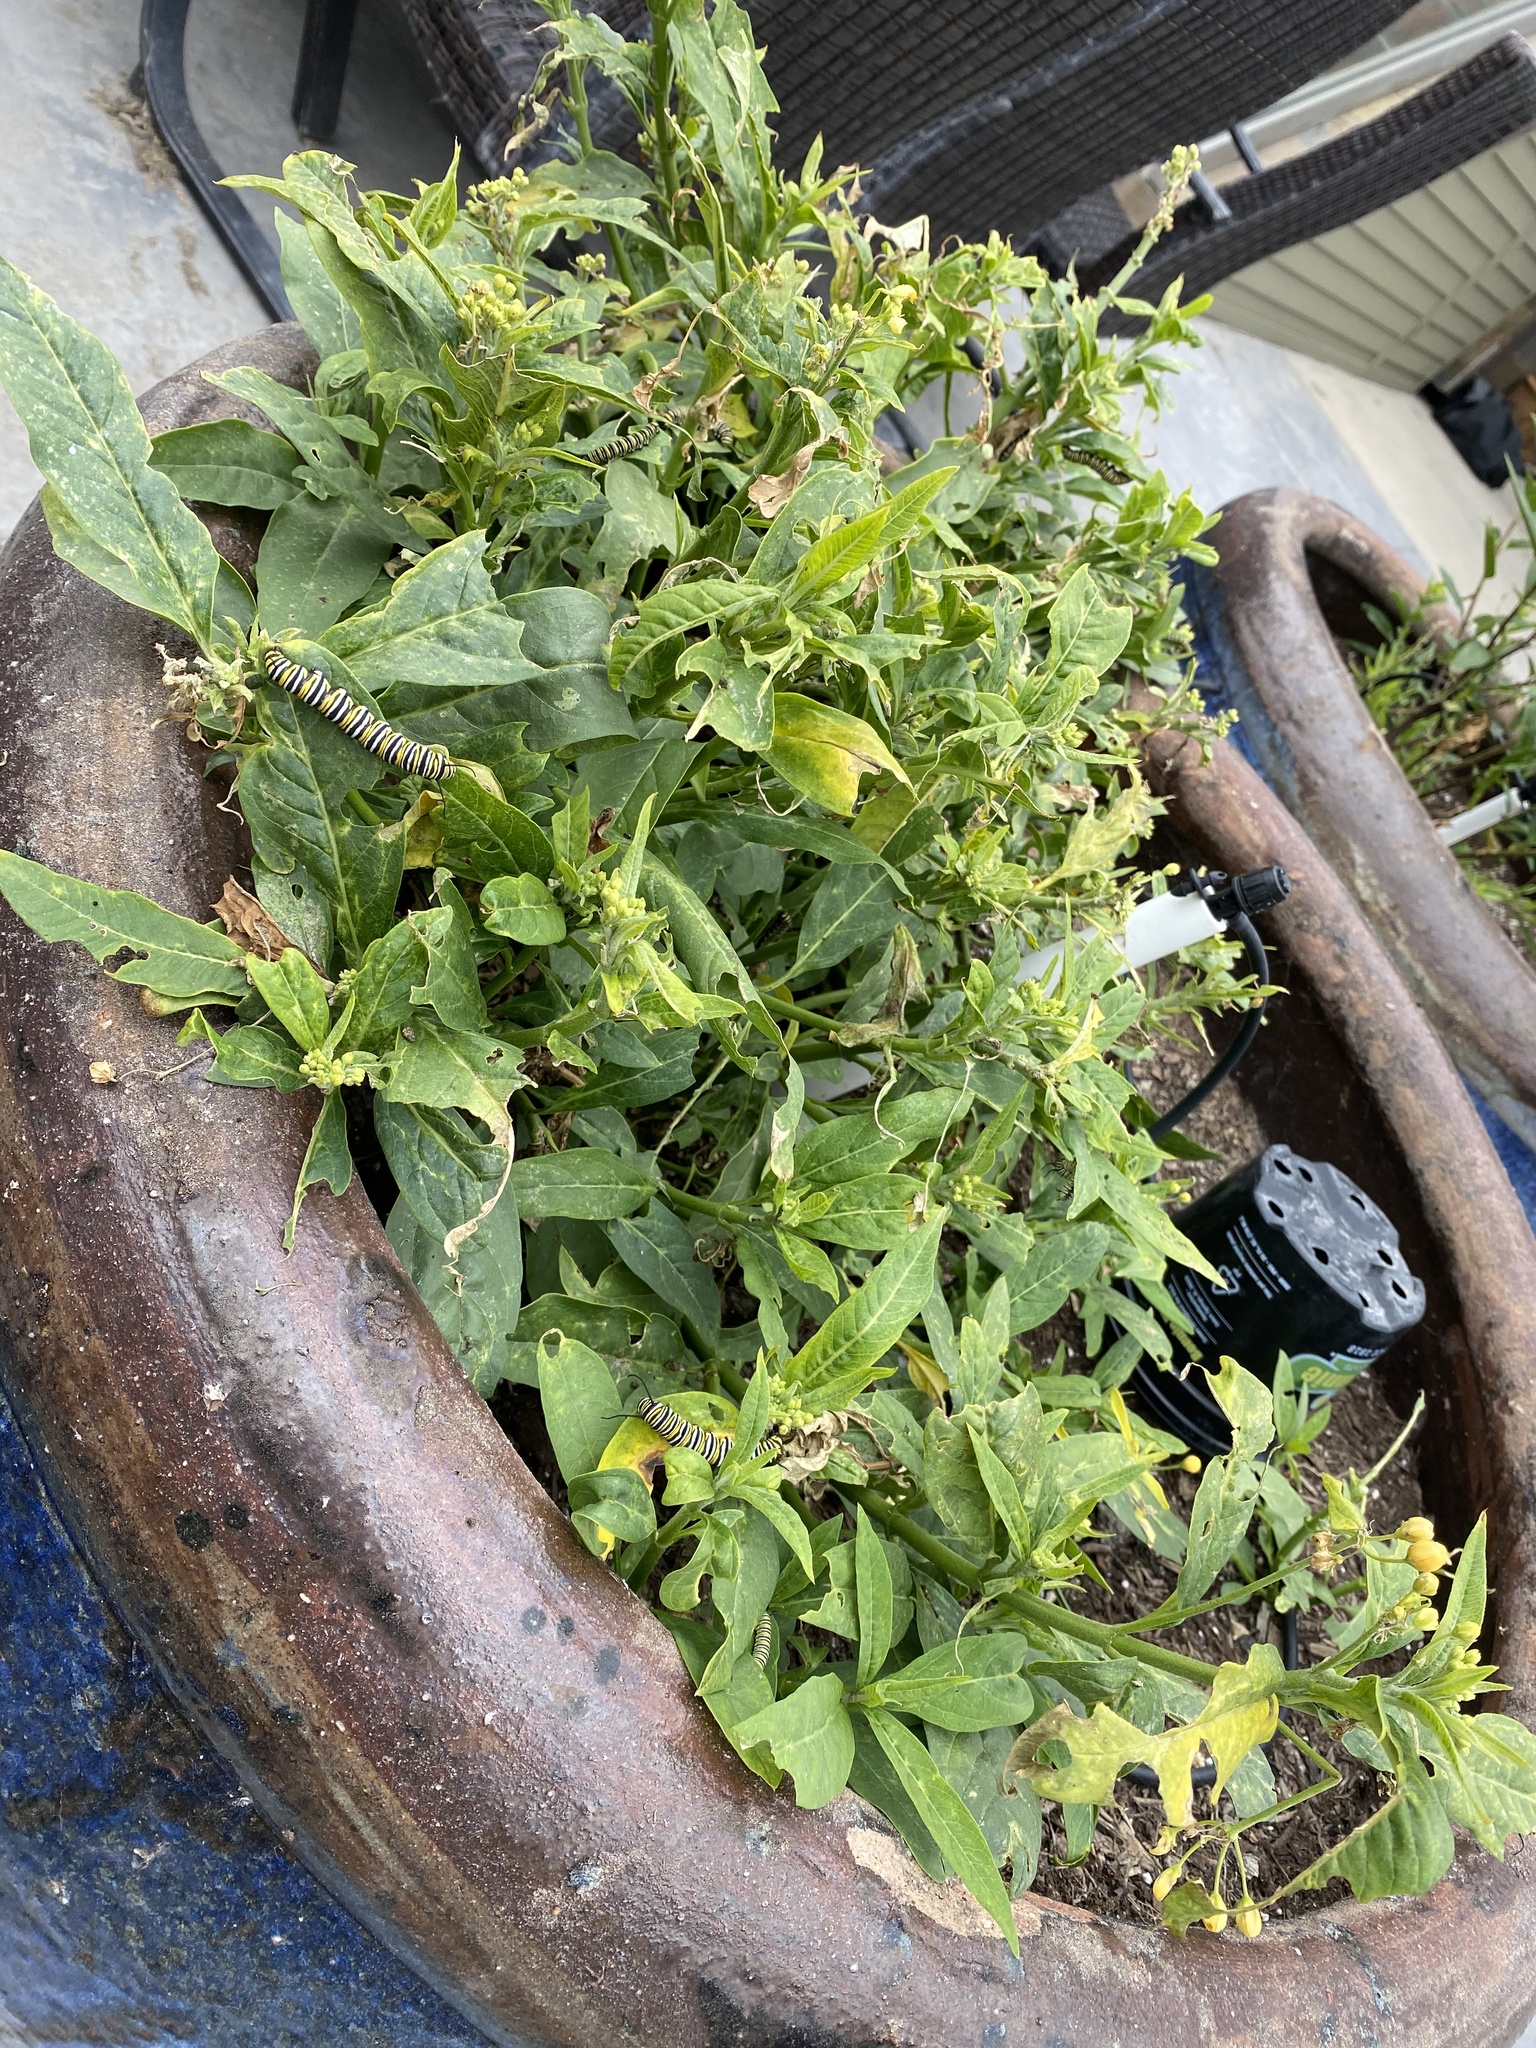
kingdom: Animalia
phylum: Arthropoda
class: Insecta
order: Lepidoptera
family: Nymphalidae
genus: Danaus
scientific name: Danaus plexippus
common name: Monarch
